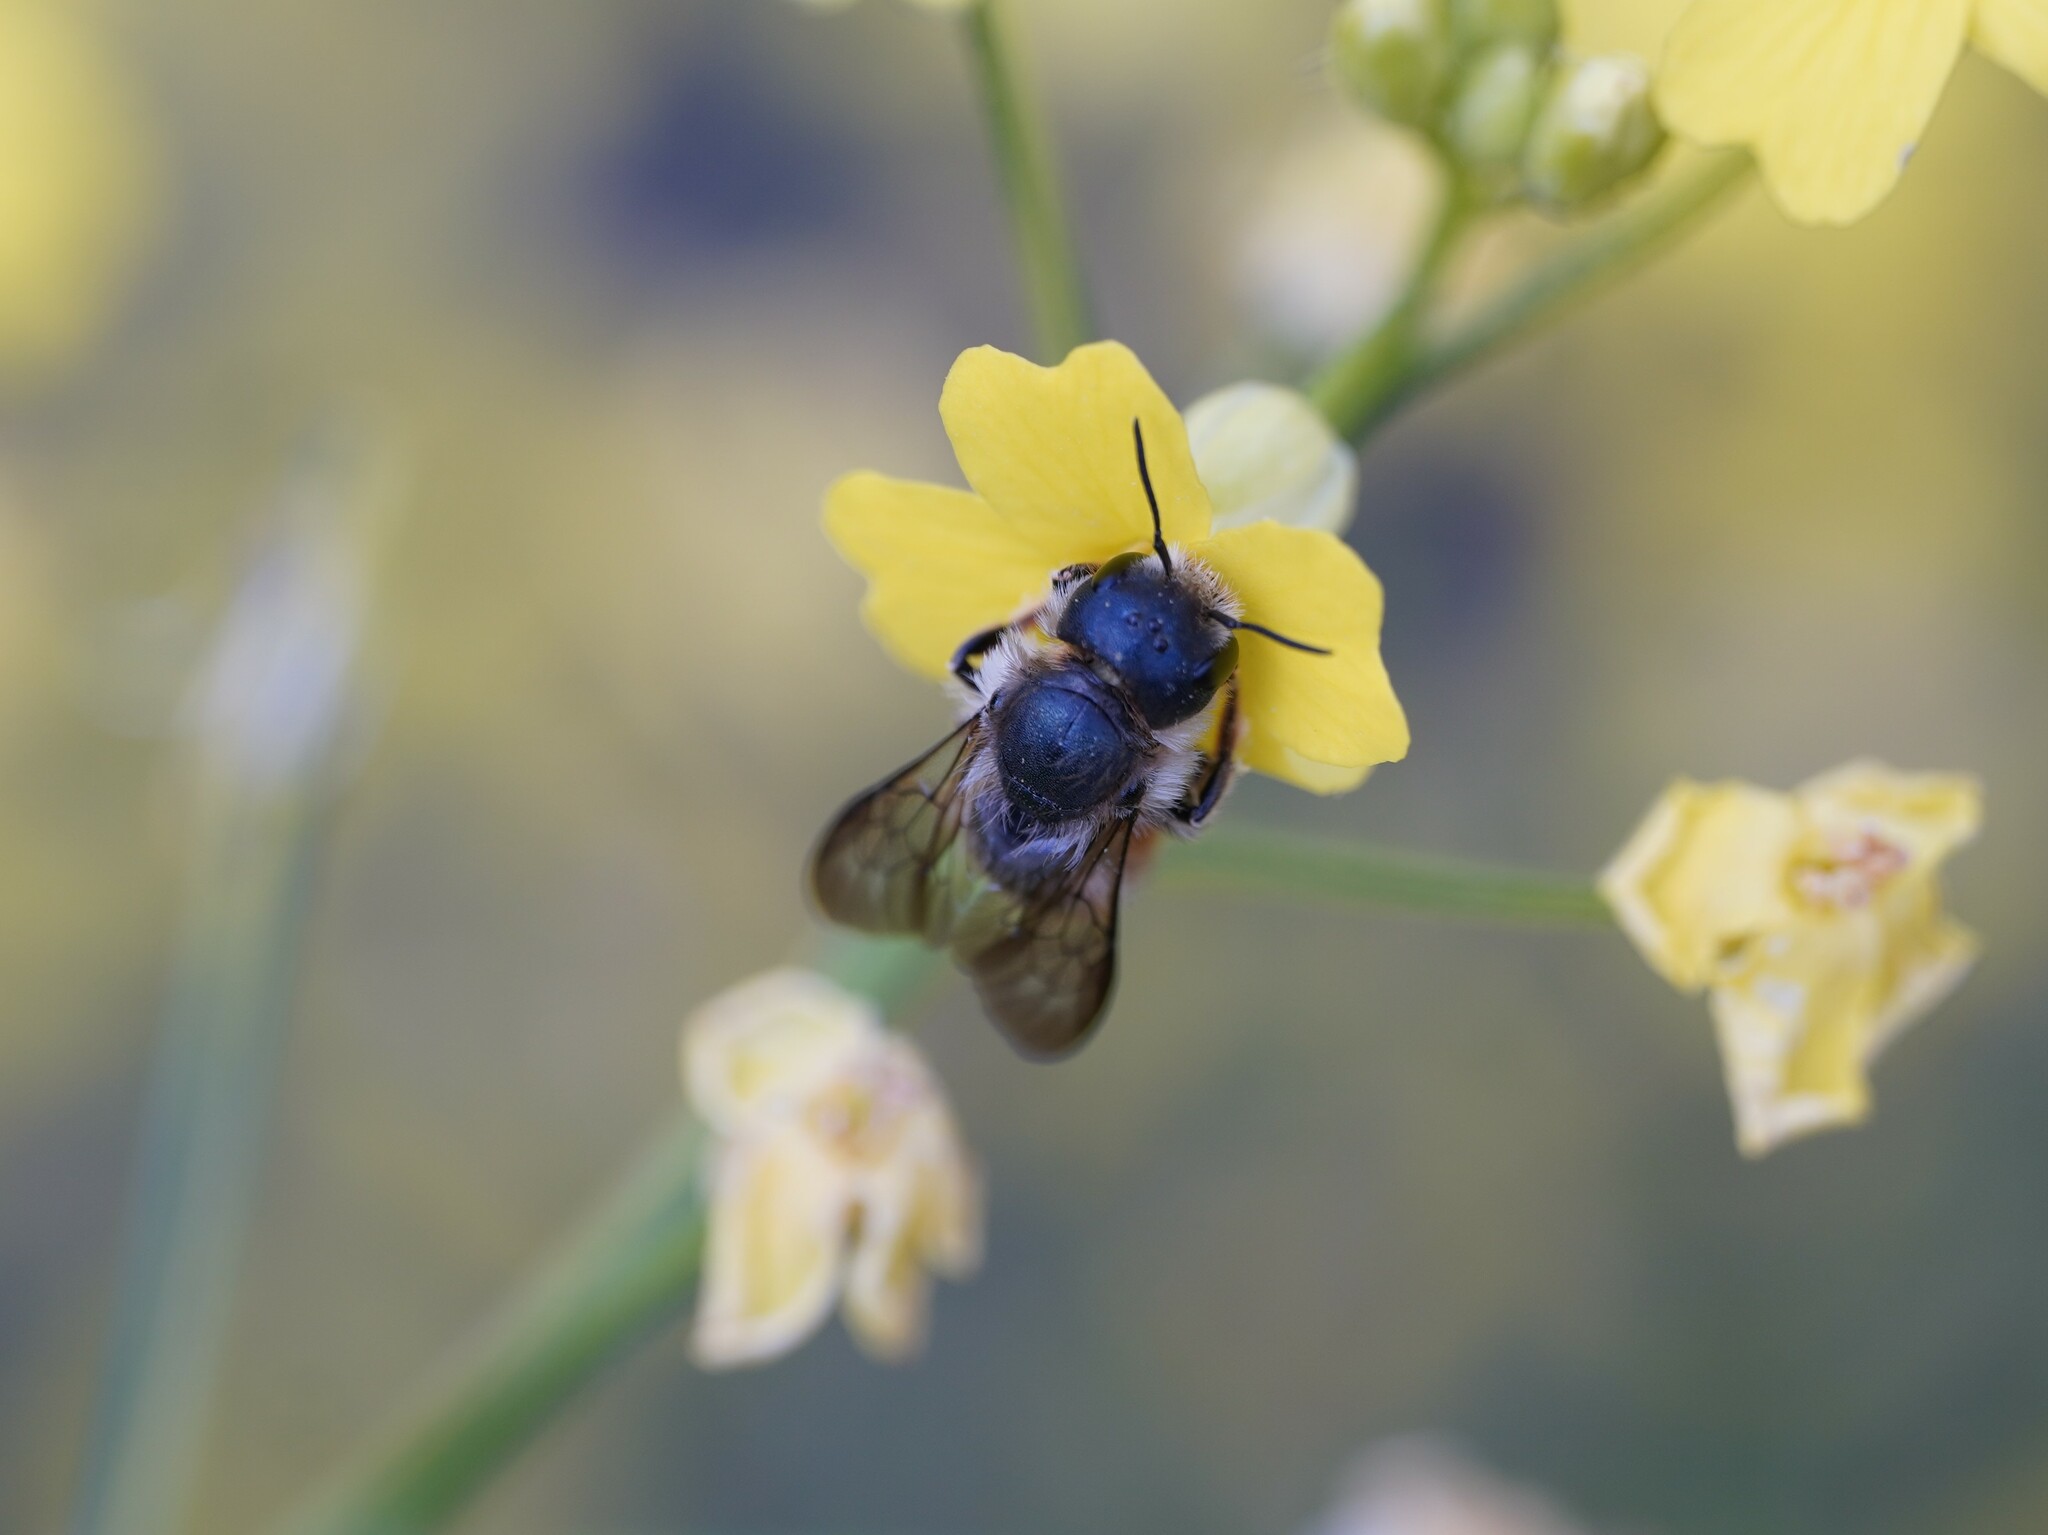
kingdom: Animalia
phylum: Arthropoda
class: Insecta
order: Hymenoptera
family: Megachilidae
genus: Osmia
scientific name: Osmia brevicornis
